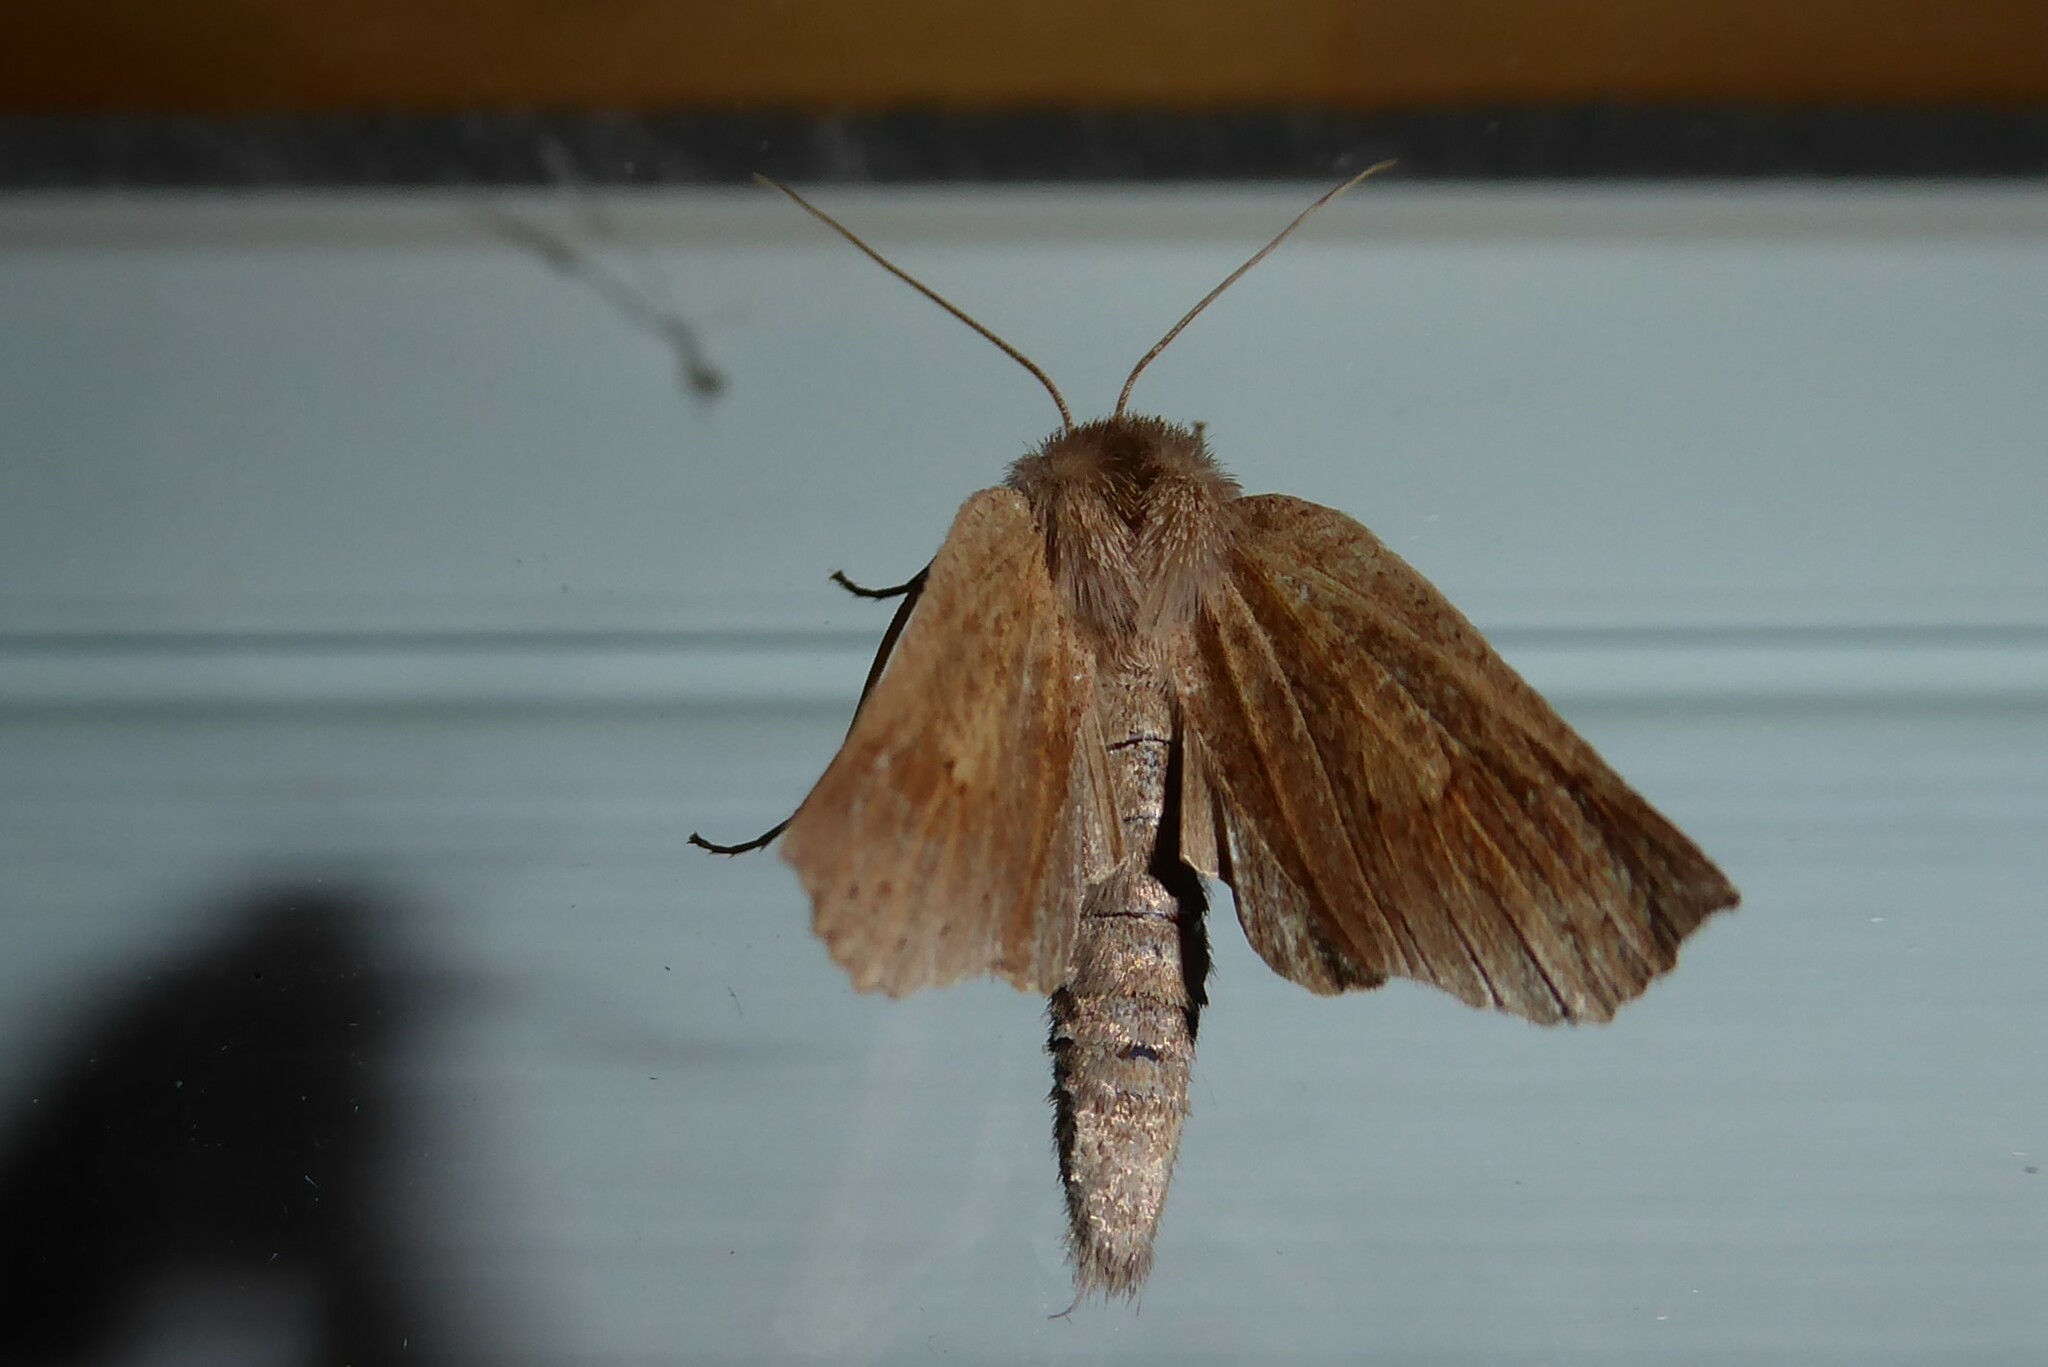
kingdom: Animalia
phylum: Arthropoda
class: Insecta
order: Lepidoptera
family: Geometridae
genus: Declana
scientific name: Declana leptomera
